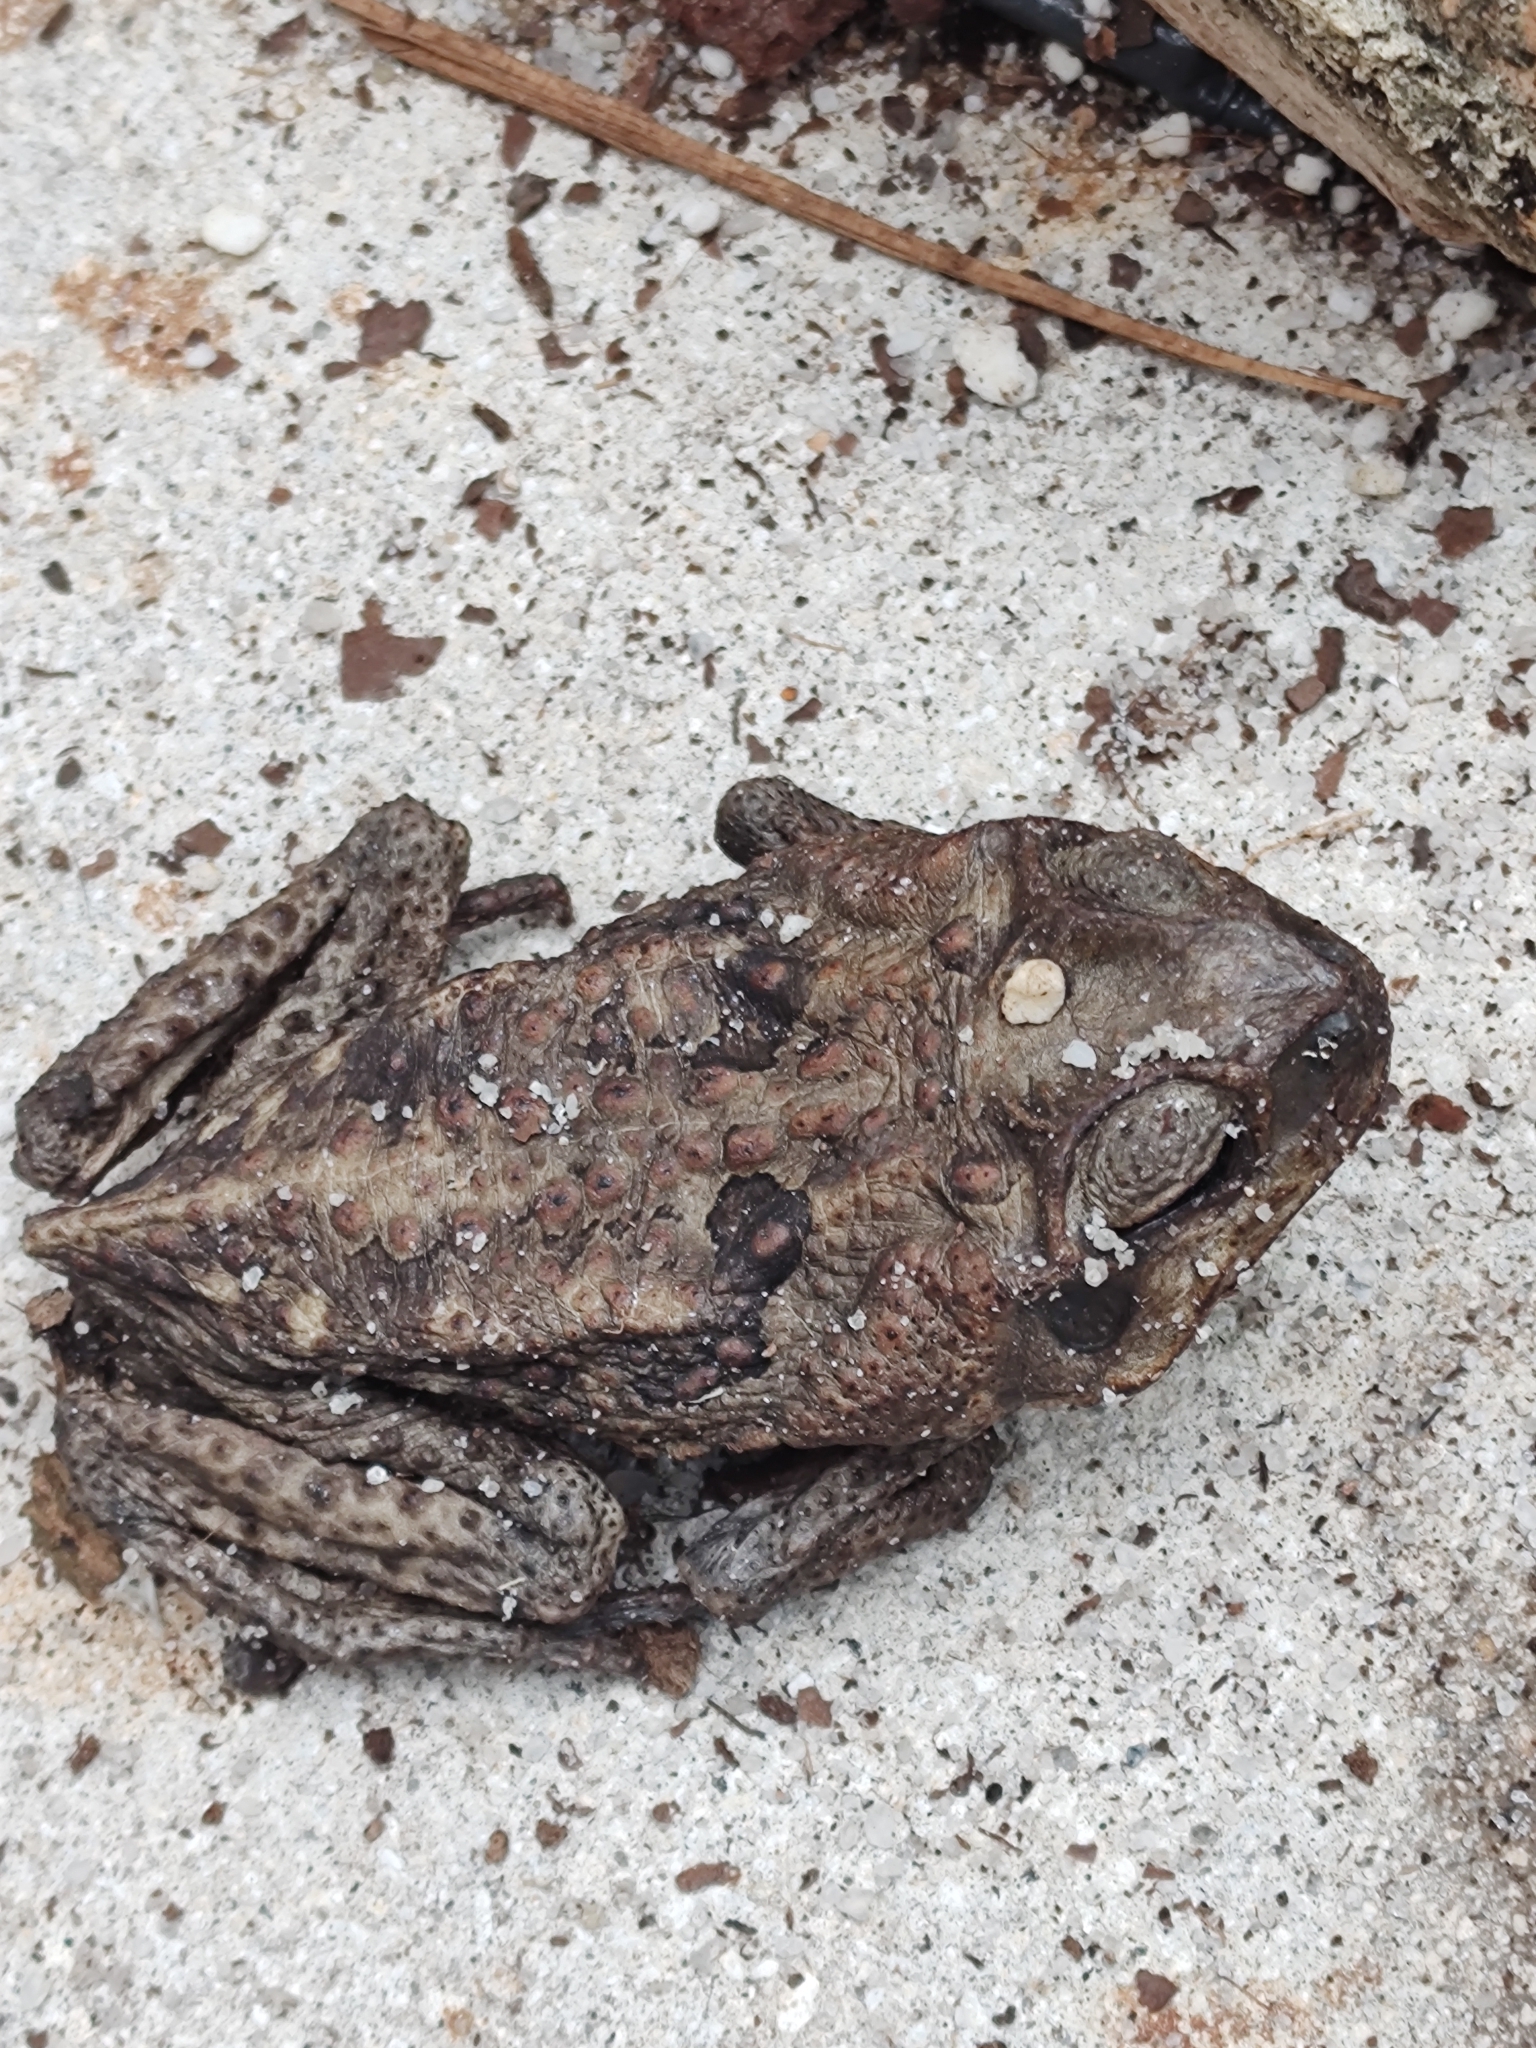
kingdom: Animalia
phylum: Chordata
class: Amphibia
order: Anura
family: Bufonidae
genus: Rhinella
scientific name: Rhinella marina
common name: Cane toad
